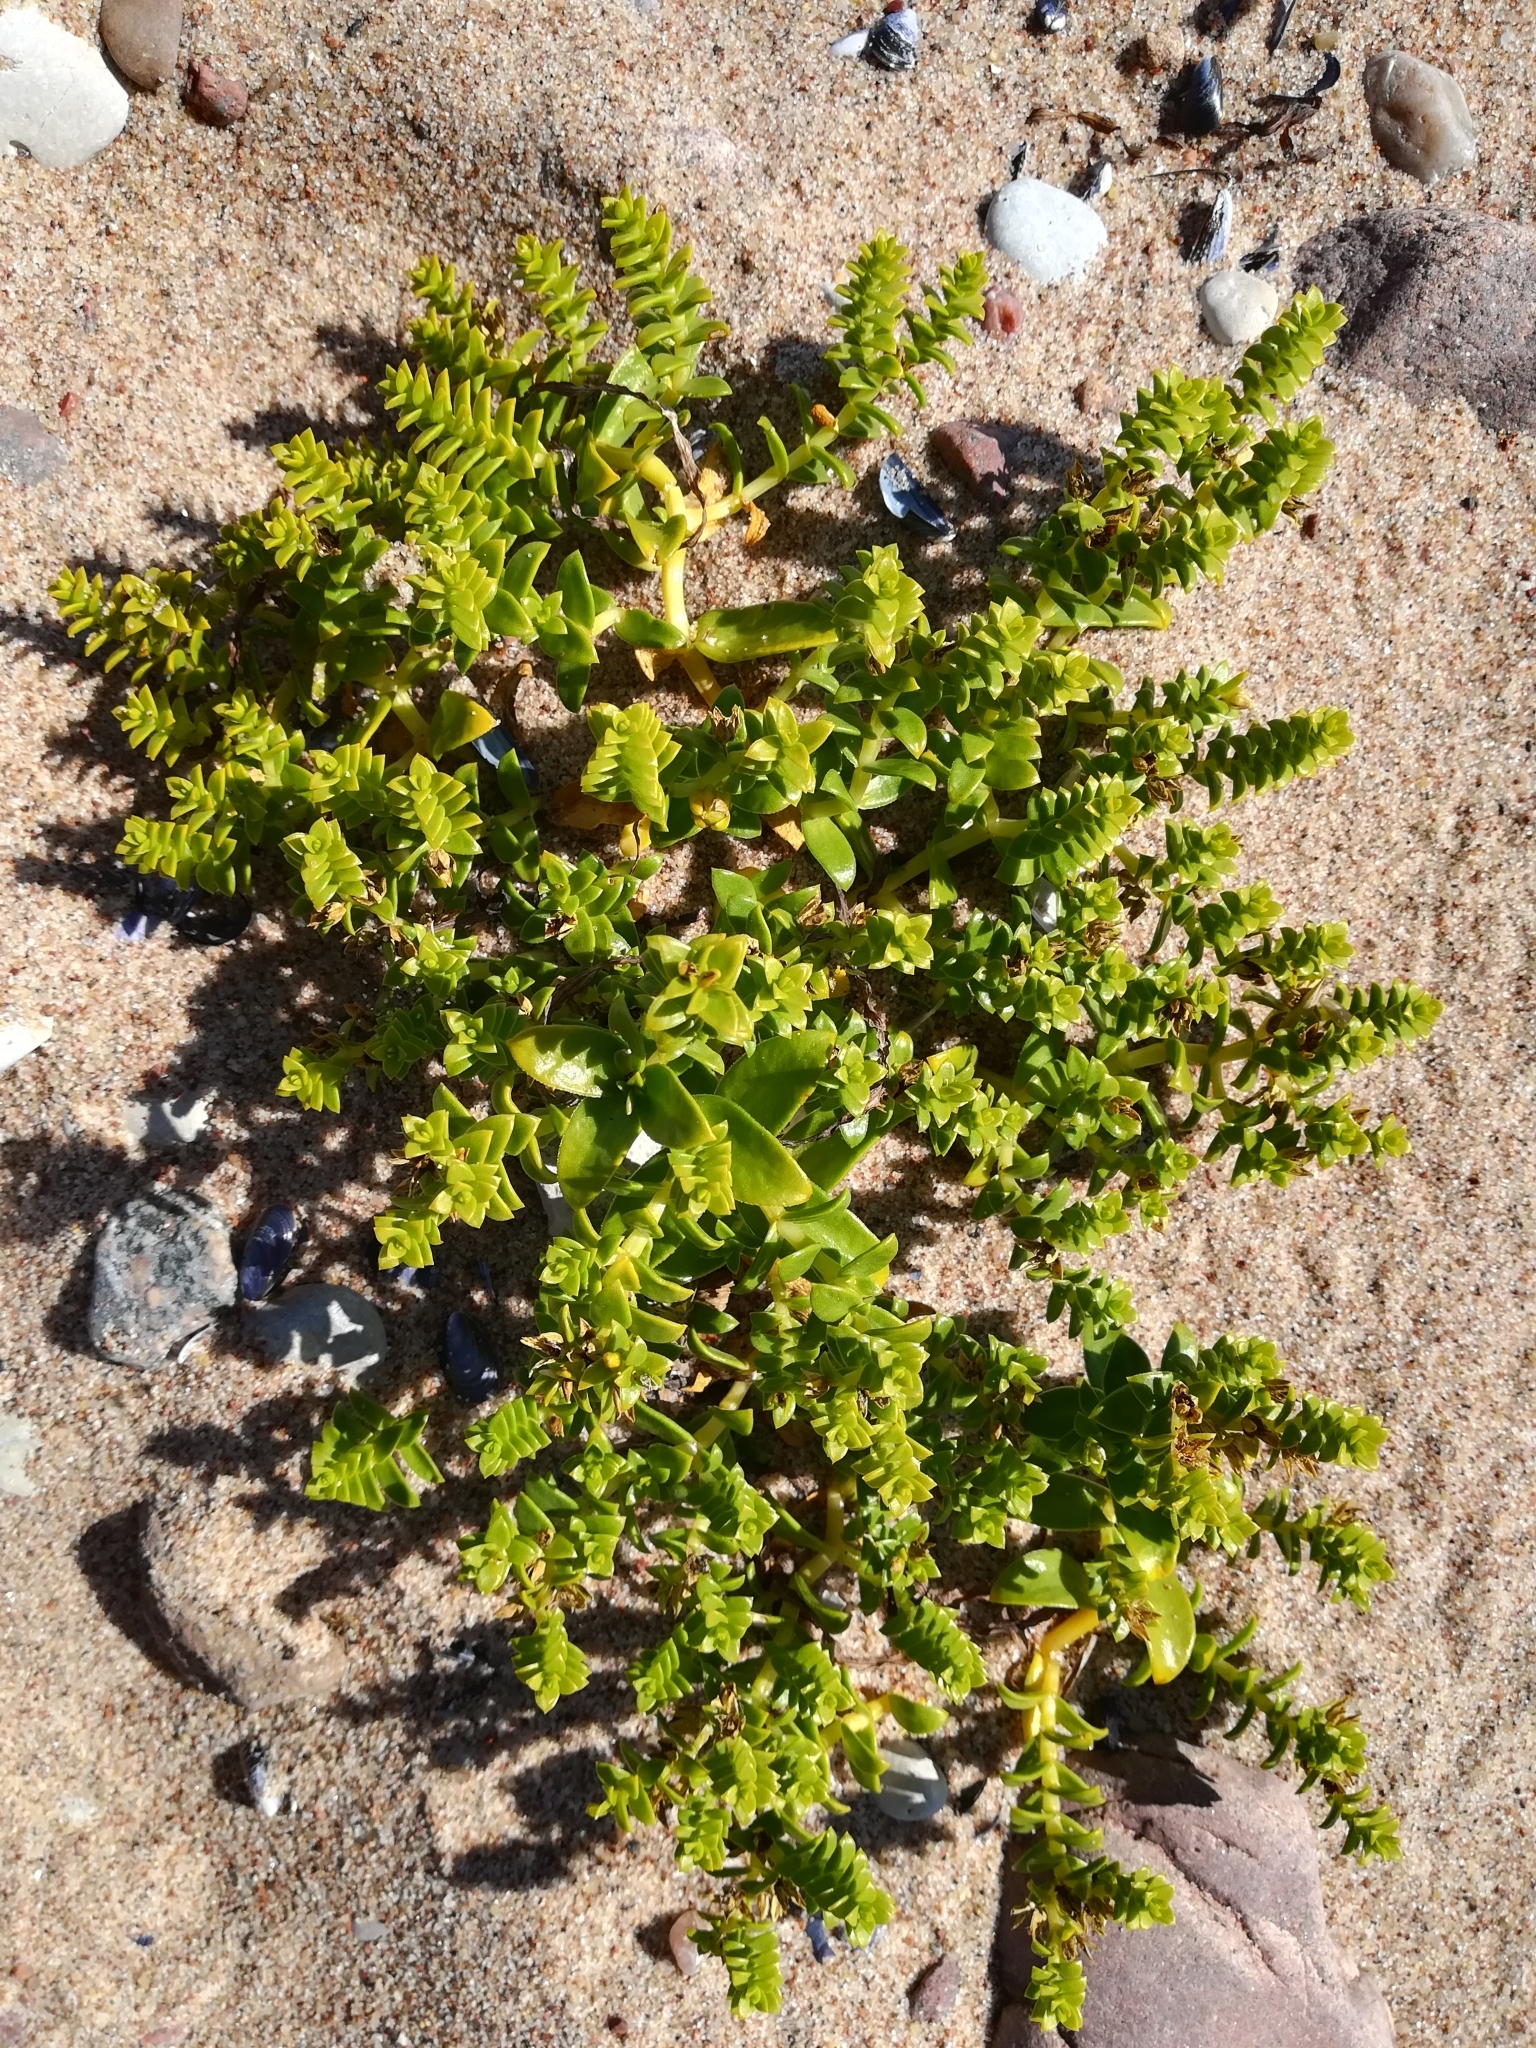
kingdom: Plantae
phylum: Tracheophyta
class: Magnoliopsida
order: Caryophyllales
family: Caryophyllaceae
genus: Honckenya
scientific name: Honckenya peploides
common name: Sea sandwort
